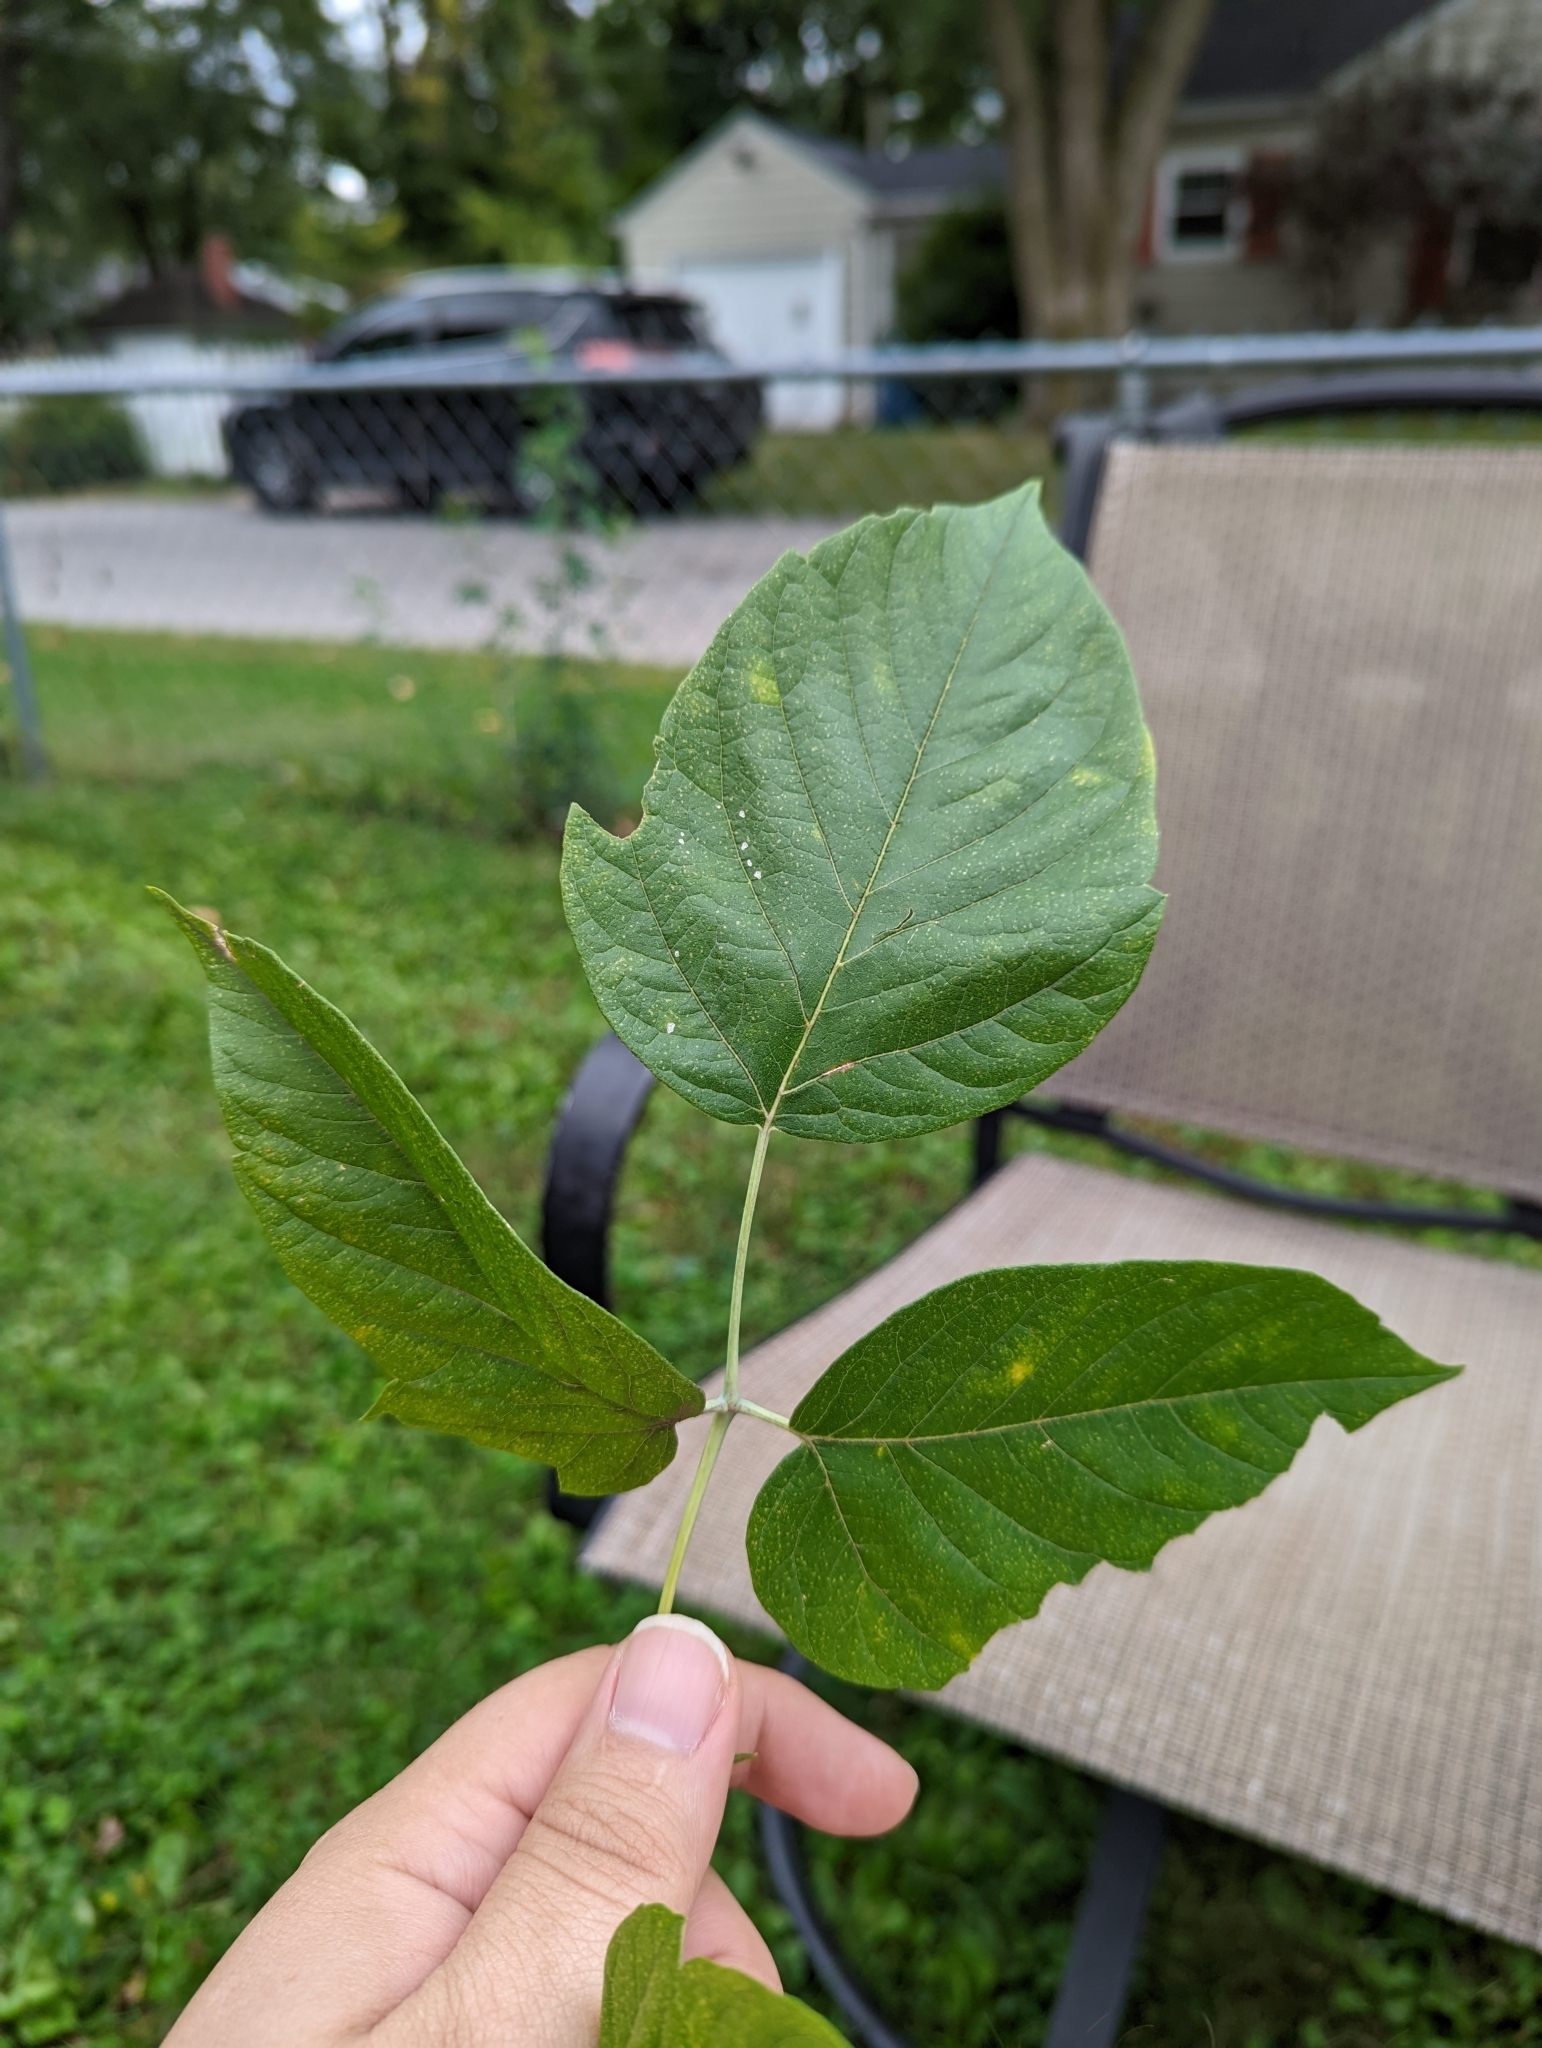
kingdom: Plantae
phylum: Tracheophyta
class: Magnoliopsida
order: Sapindales
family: Sapindaceae
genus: Acer
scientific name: Acer negundo
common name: Ashleaf maple
